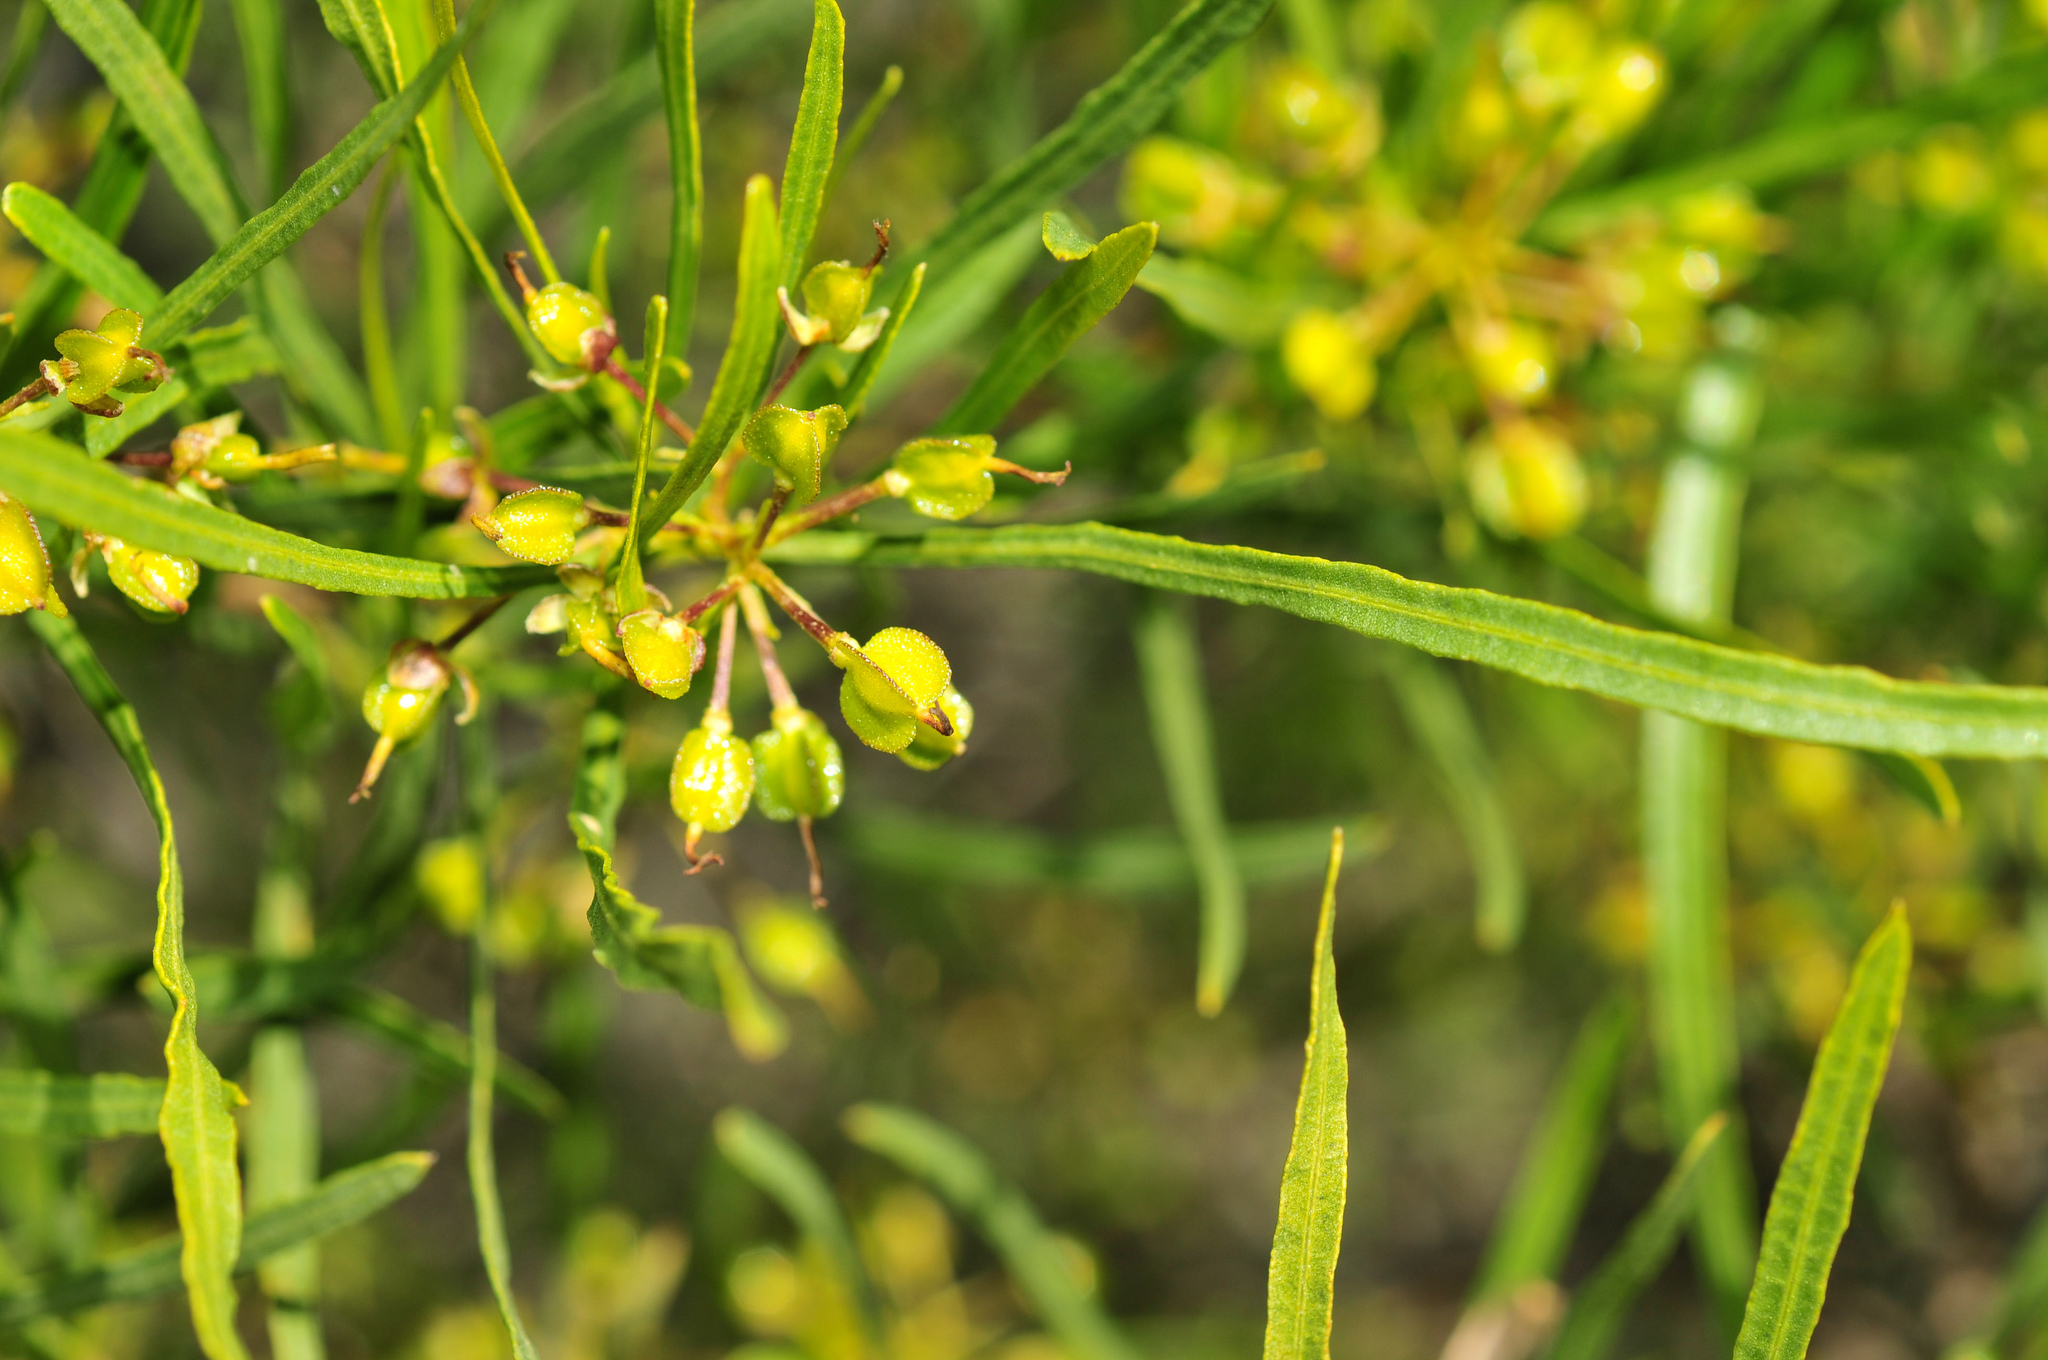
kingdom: Plantae
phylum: Tracheophyta
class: Magnoliopsida
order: Sapindales
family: Sapindaceae
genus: Dodonaea
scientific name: Dodonaea viscosa
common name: Hopbush
